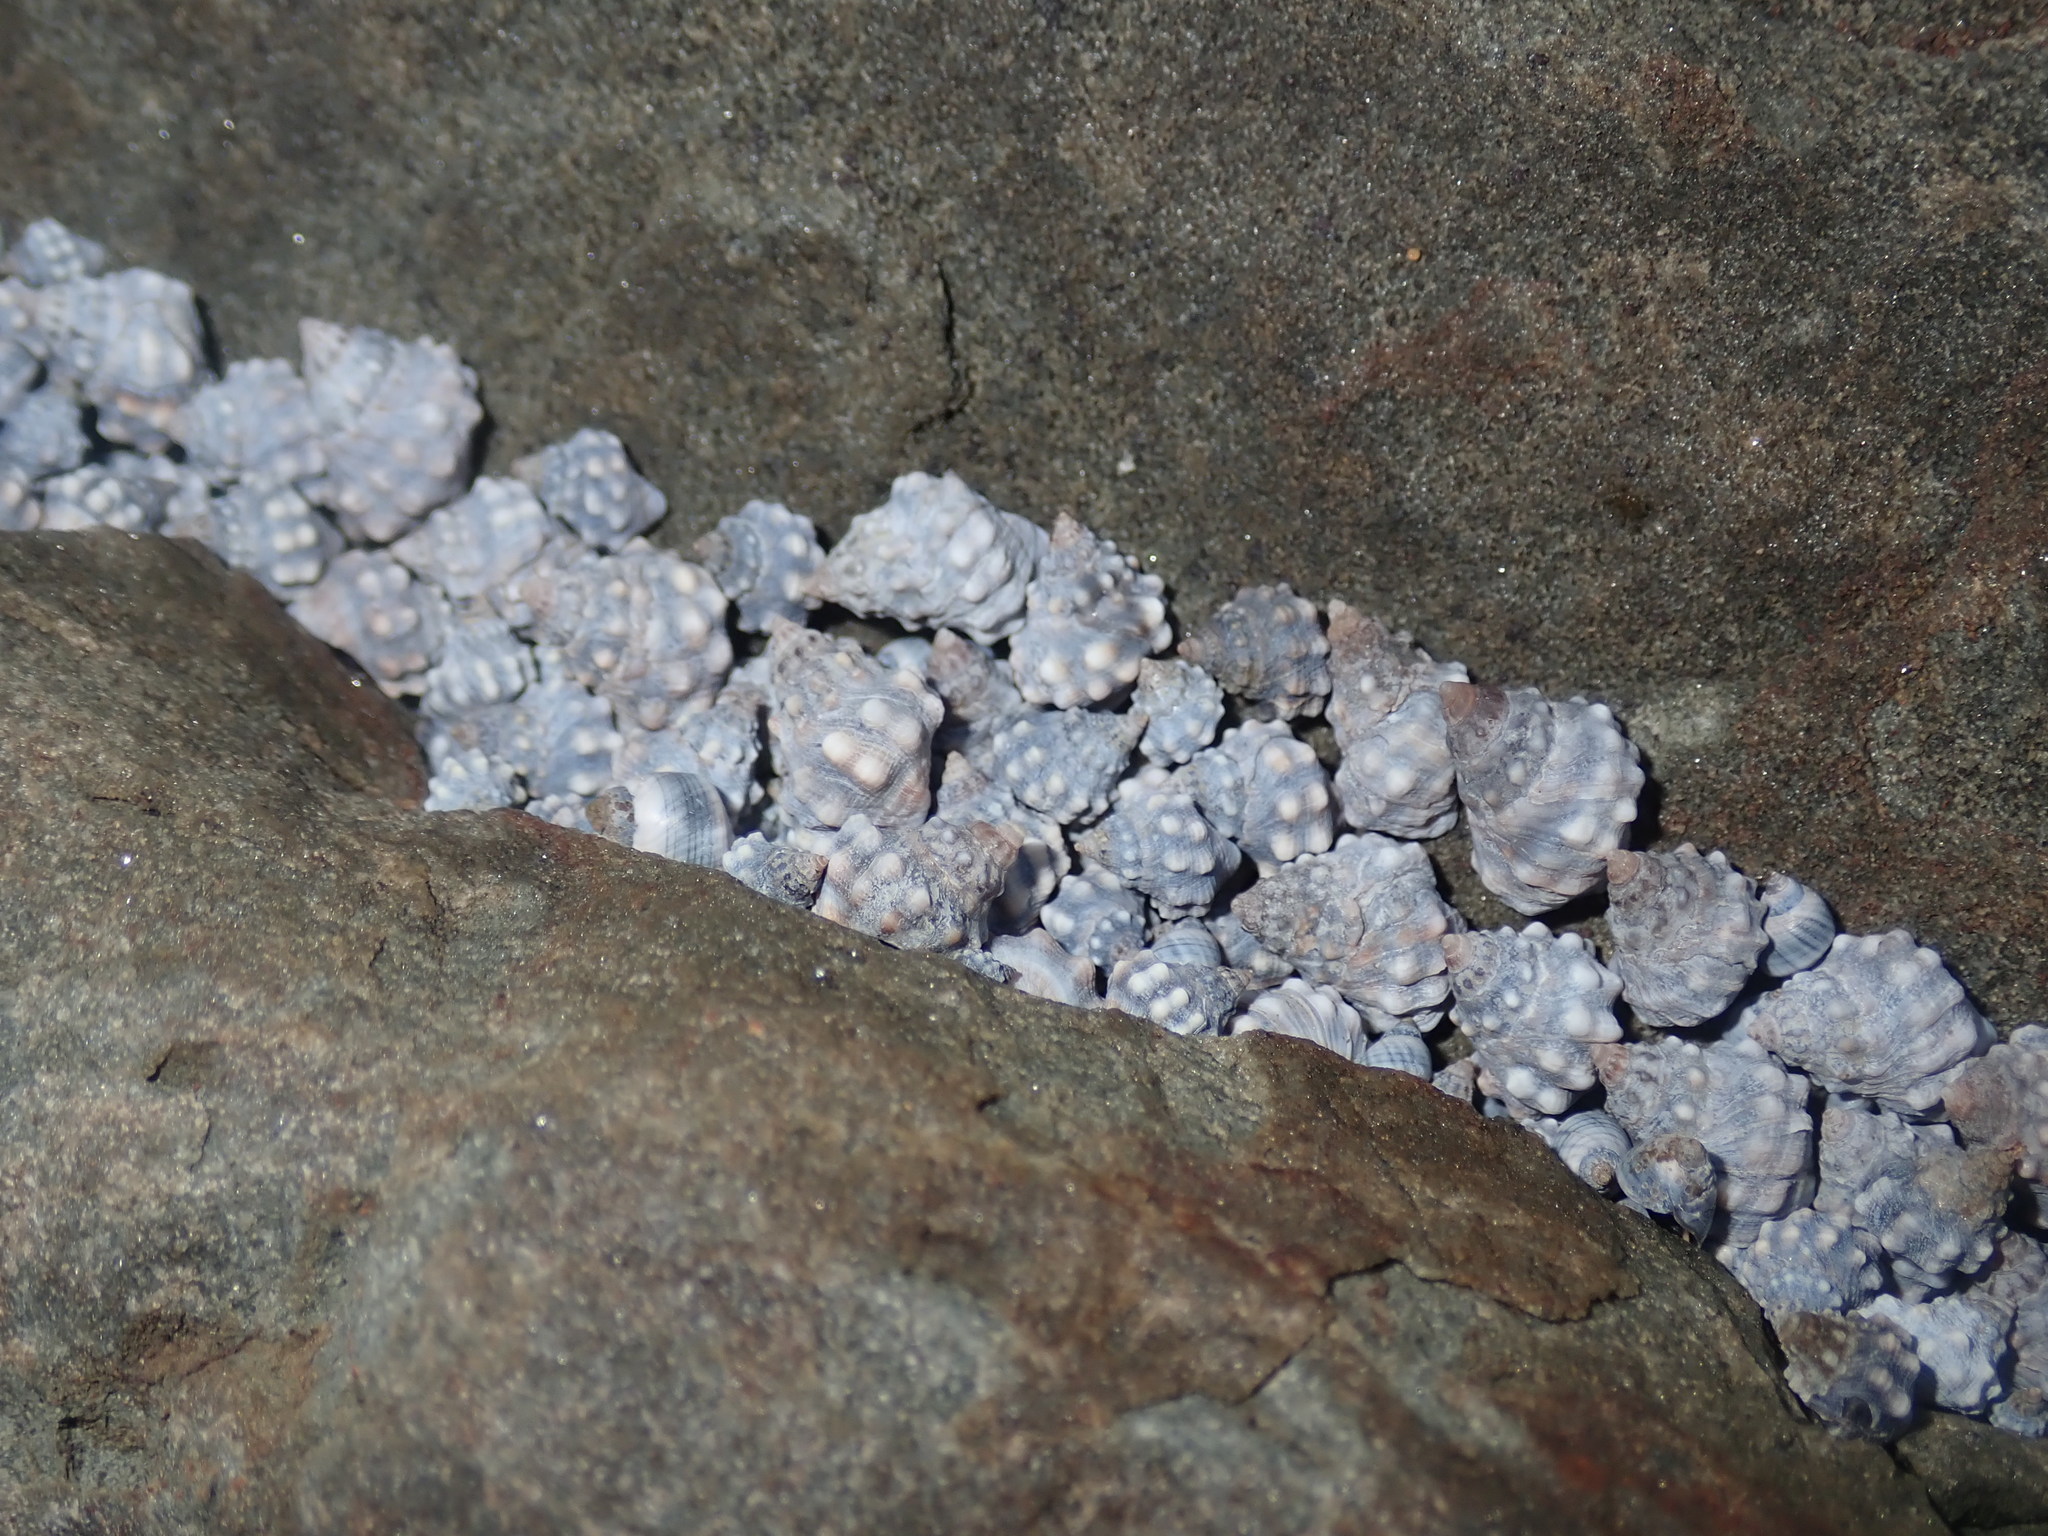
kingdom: Animalia
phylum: Mollusca
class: Gastropoda
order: Littorinimorpha
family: Littorinidae
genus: Nodilittorina
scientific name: Nodilittorina pyramidalis
